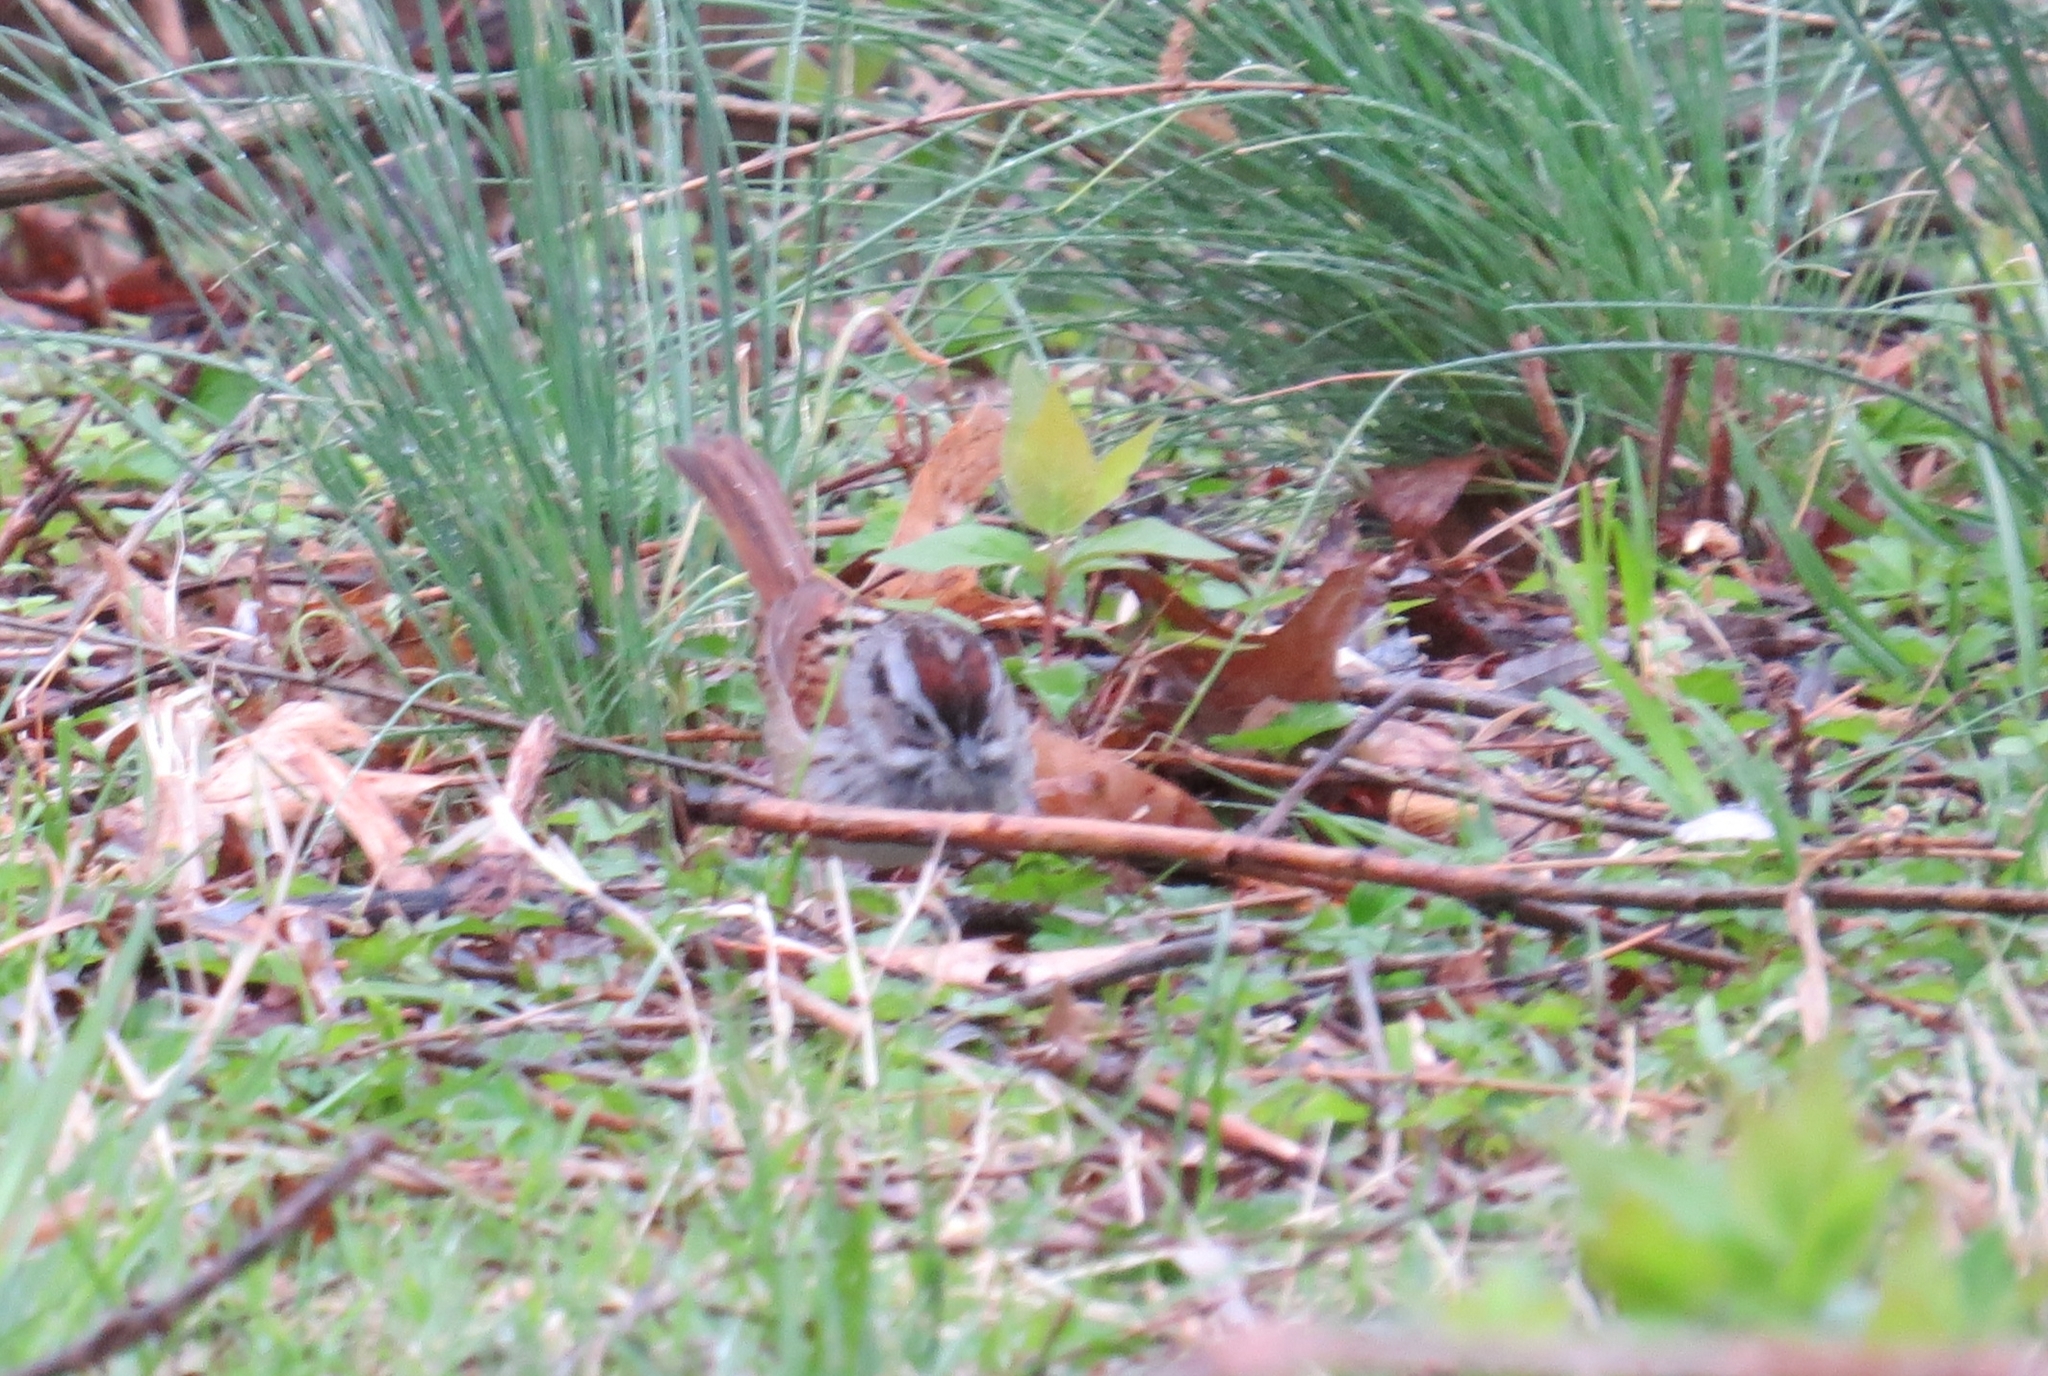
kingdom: Animalia
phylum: Chordata
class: Aves
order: Passeriformes
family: Passerellidae
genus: Melospiza
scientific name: Melospiza georgiana
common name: Swamp sparrow
